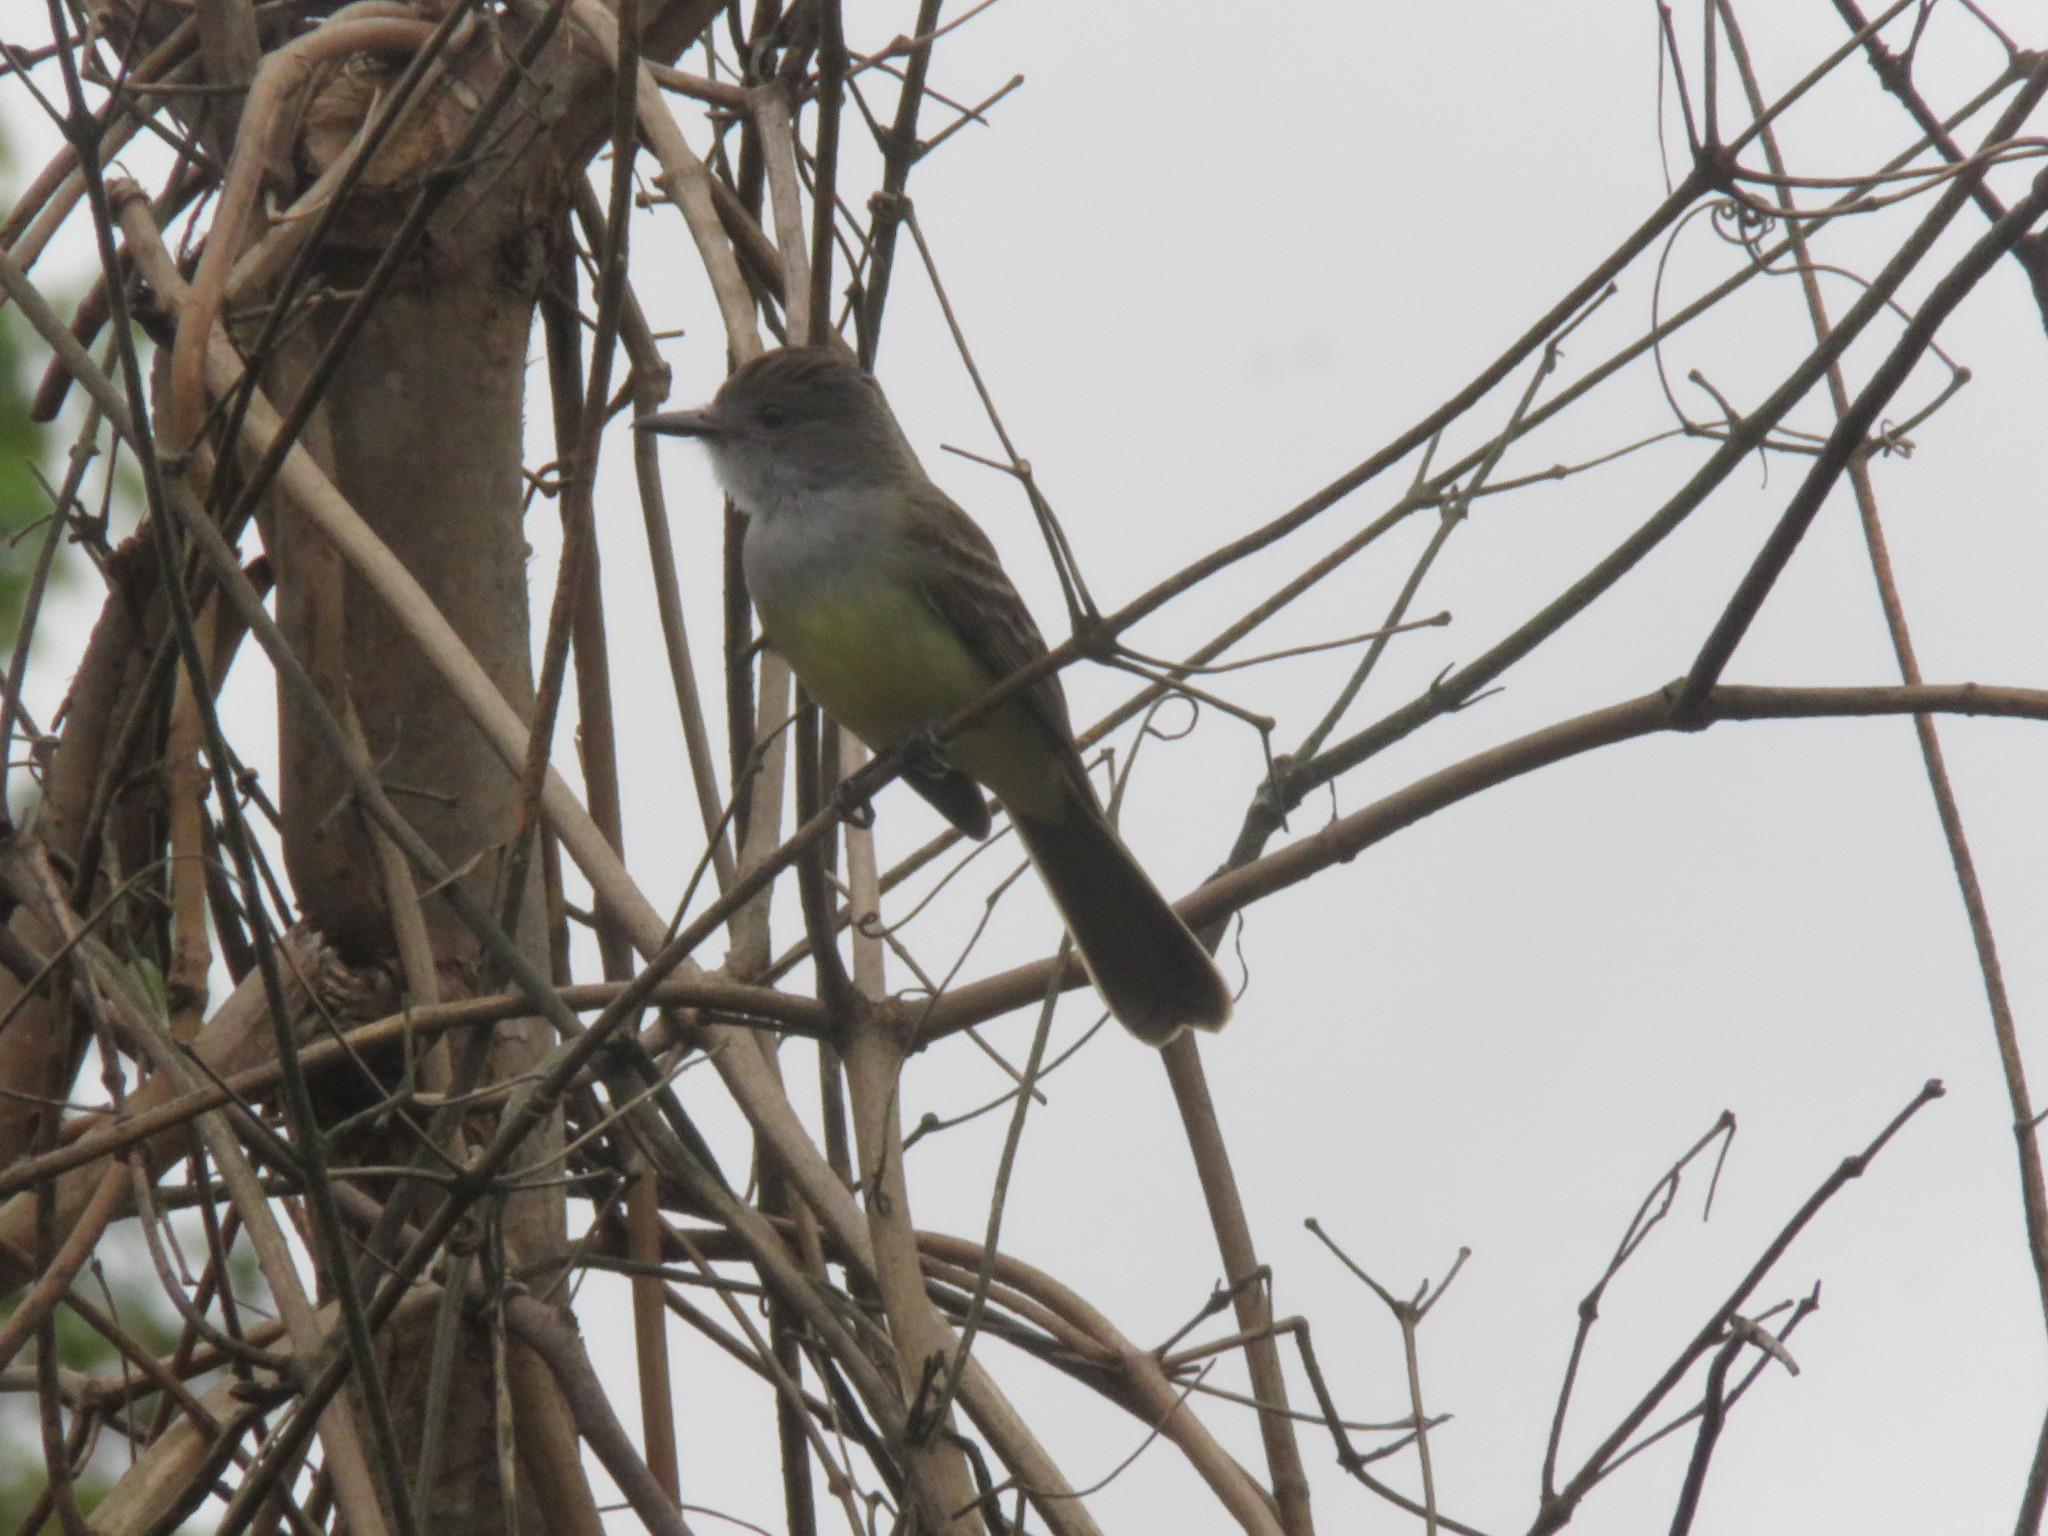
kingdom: Animalia
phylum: Chordata
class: Aves
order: Passeriformes
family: Tyrannidae
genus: Myiarchus
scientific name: Myiarchus tyrannulus
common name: Brown-crested flycatcher
